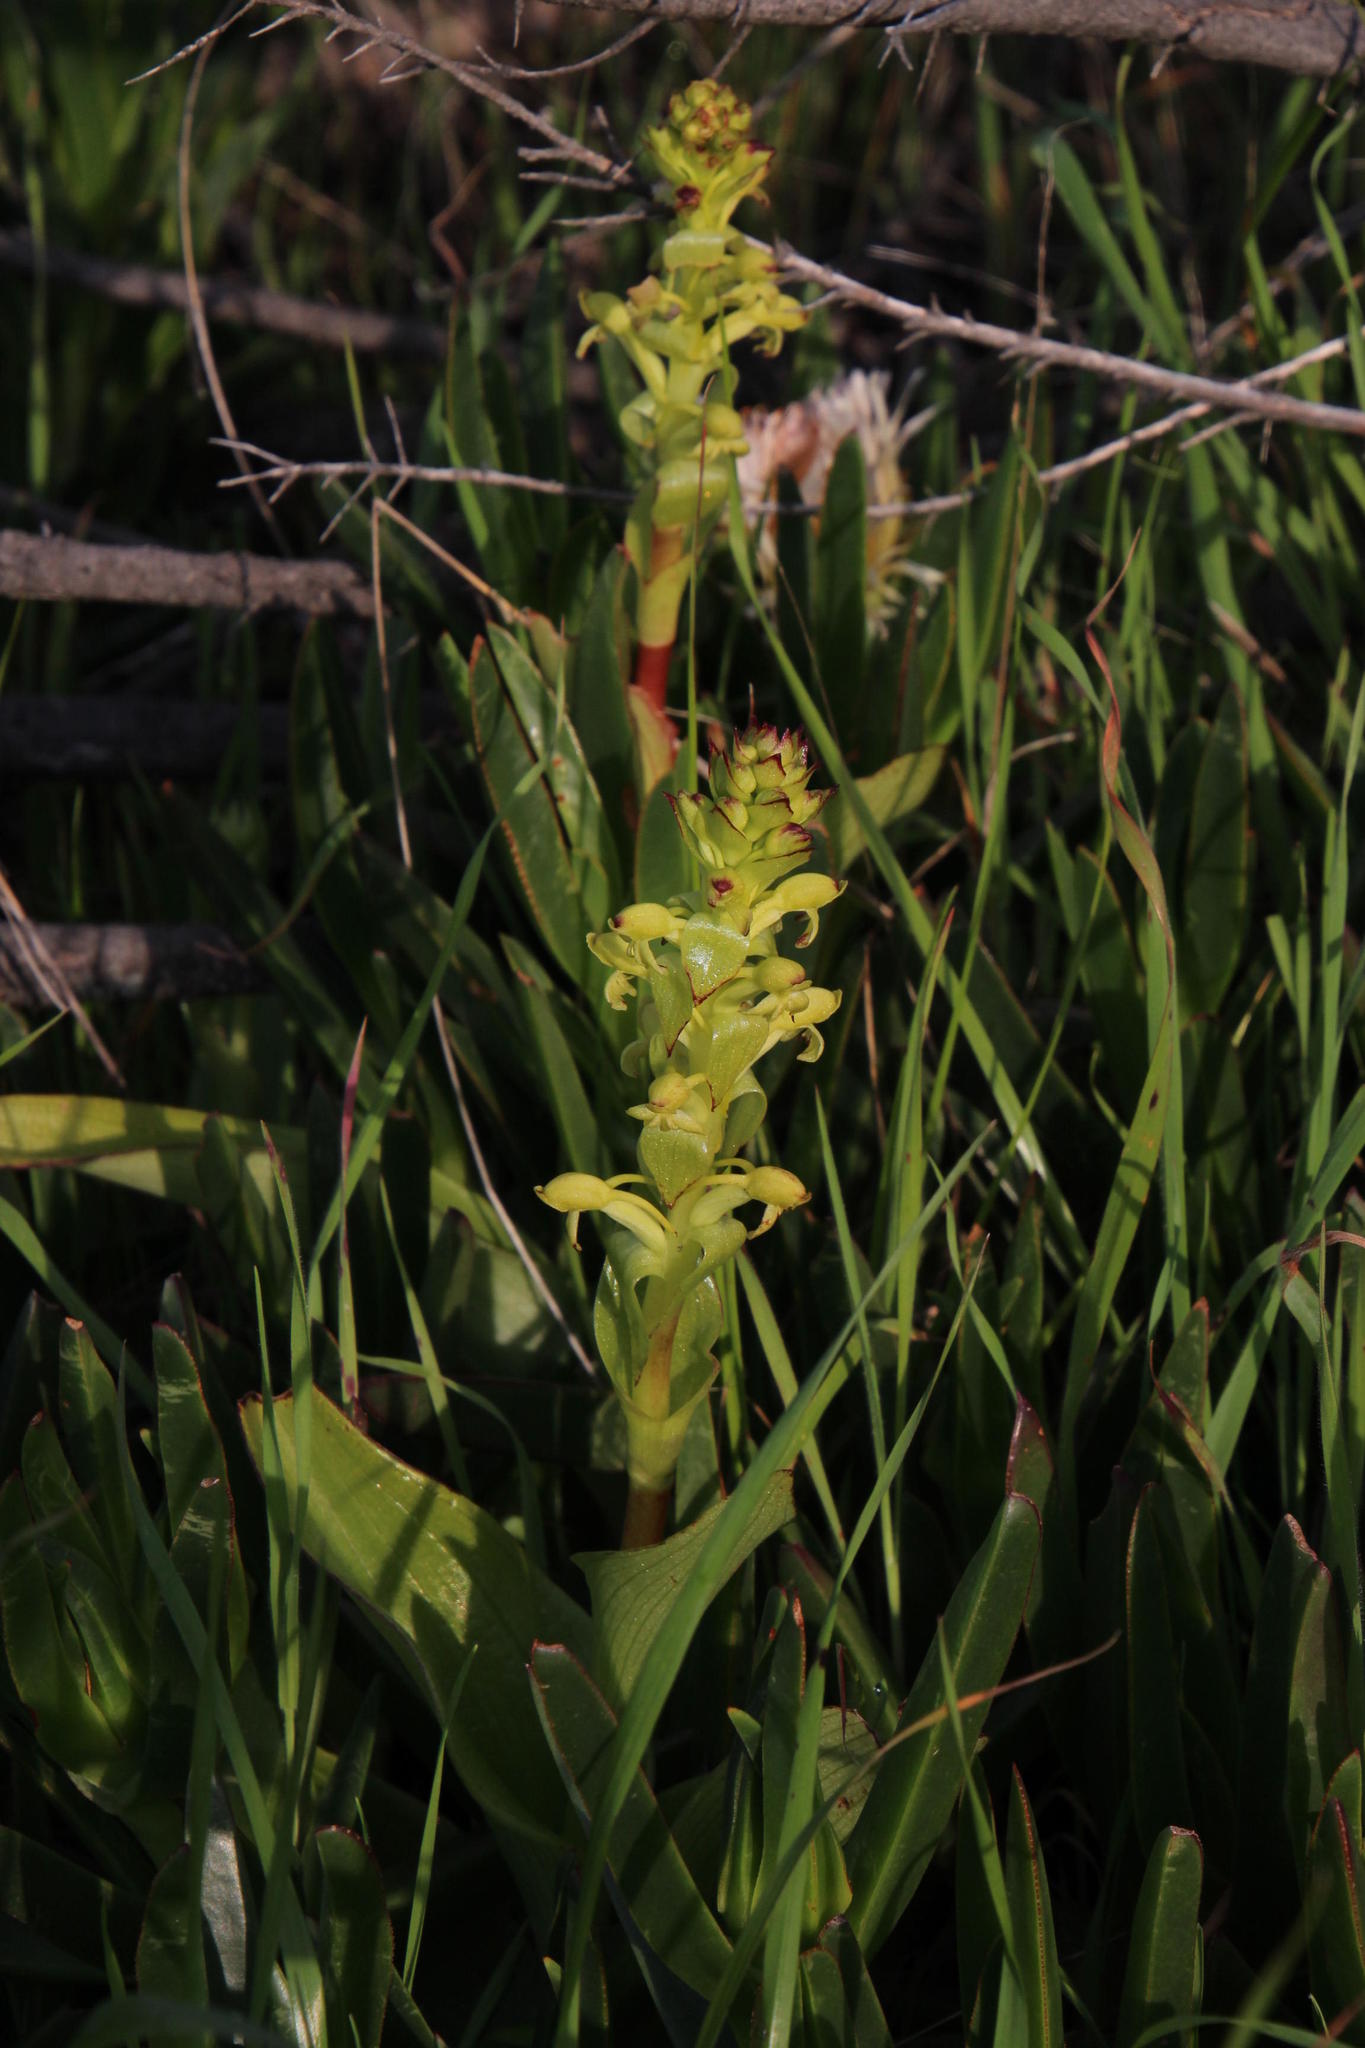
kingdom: Plantae
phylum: Tracheophyta
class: Liliopsida
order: Asparagales
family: Orchidaceae
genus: Satyrium
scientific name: Satyrium odorum
